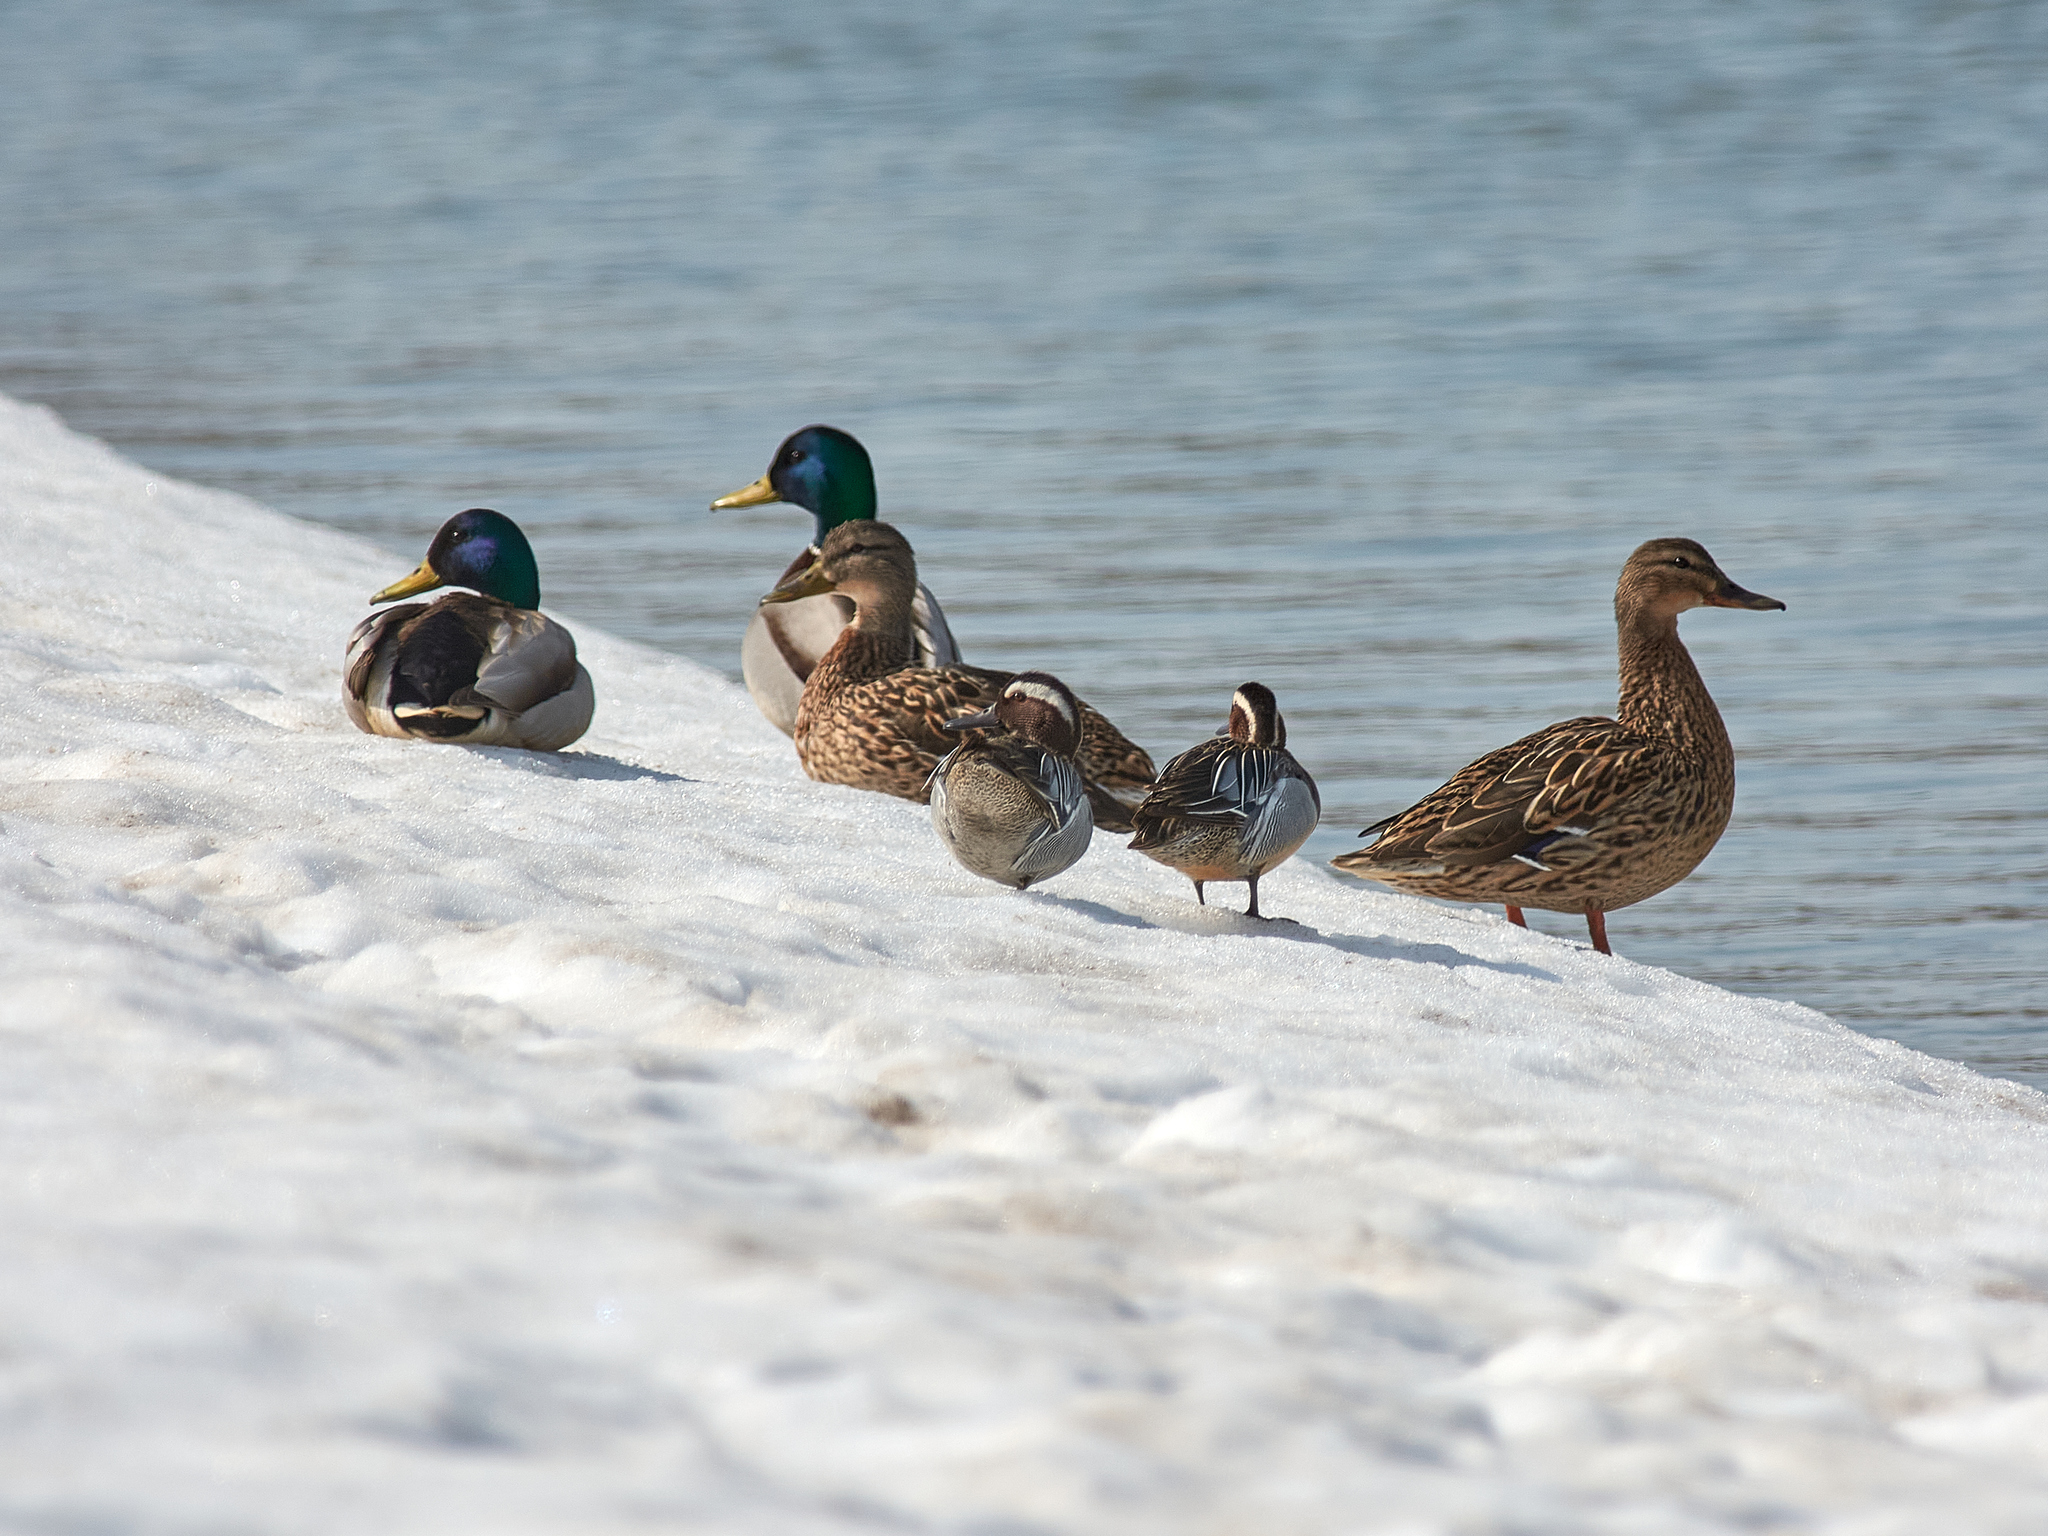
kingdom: Animalia
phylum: Chordata
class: Aves
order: Anseriformes
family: Anatidae
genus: Anas
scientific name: Anas platyrhynchos
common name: Mallard
